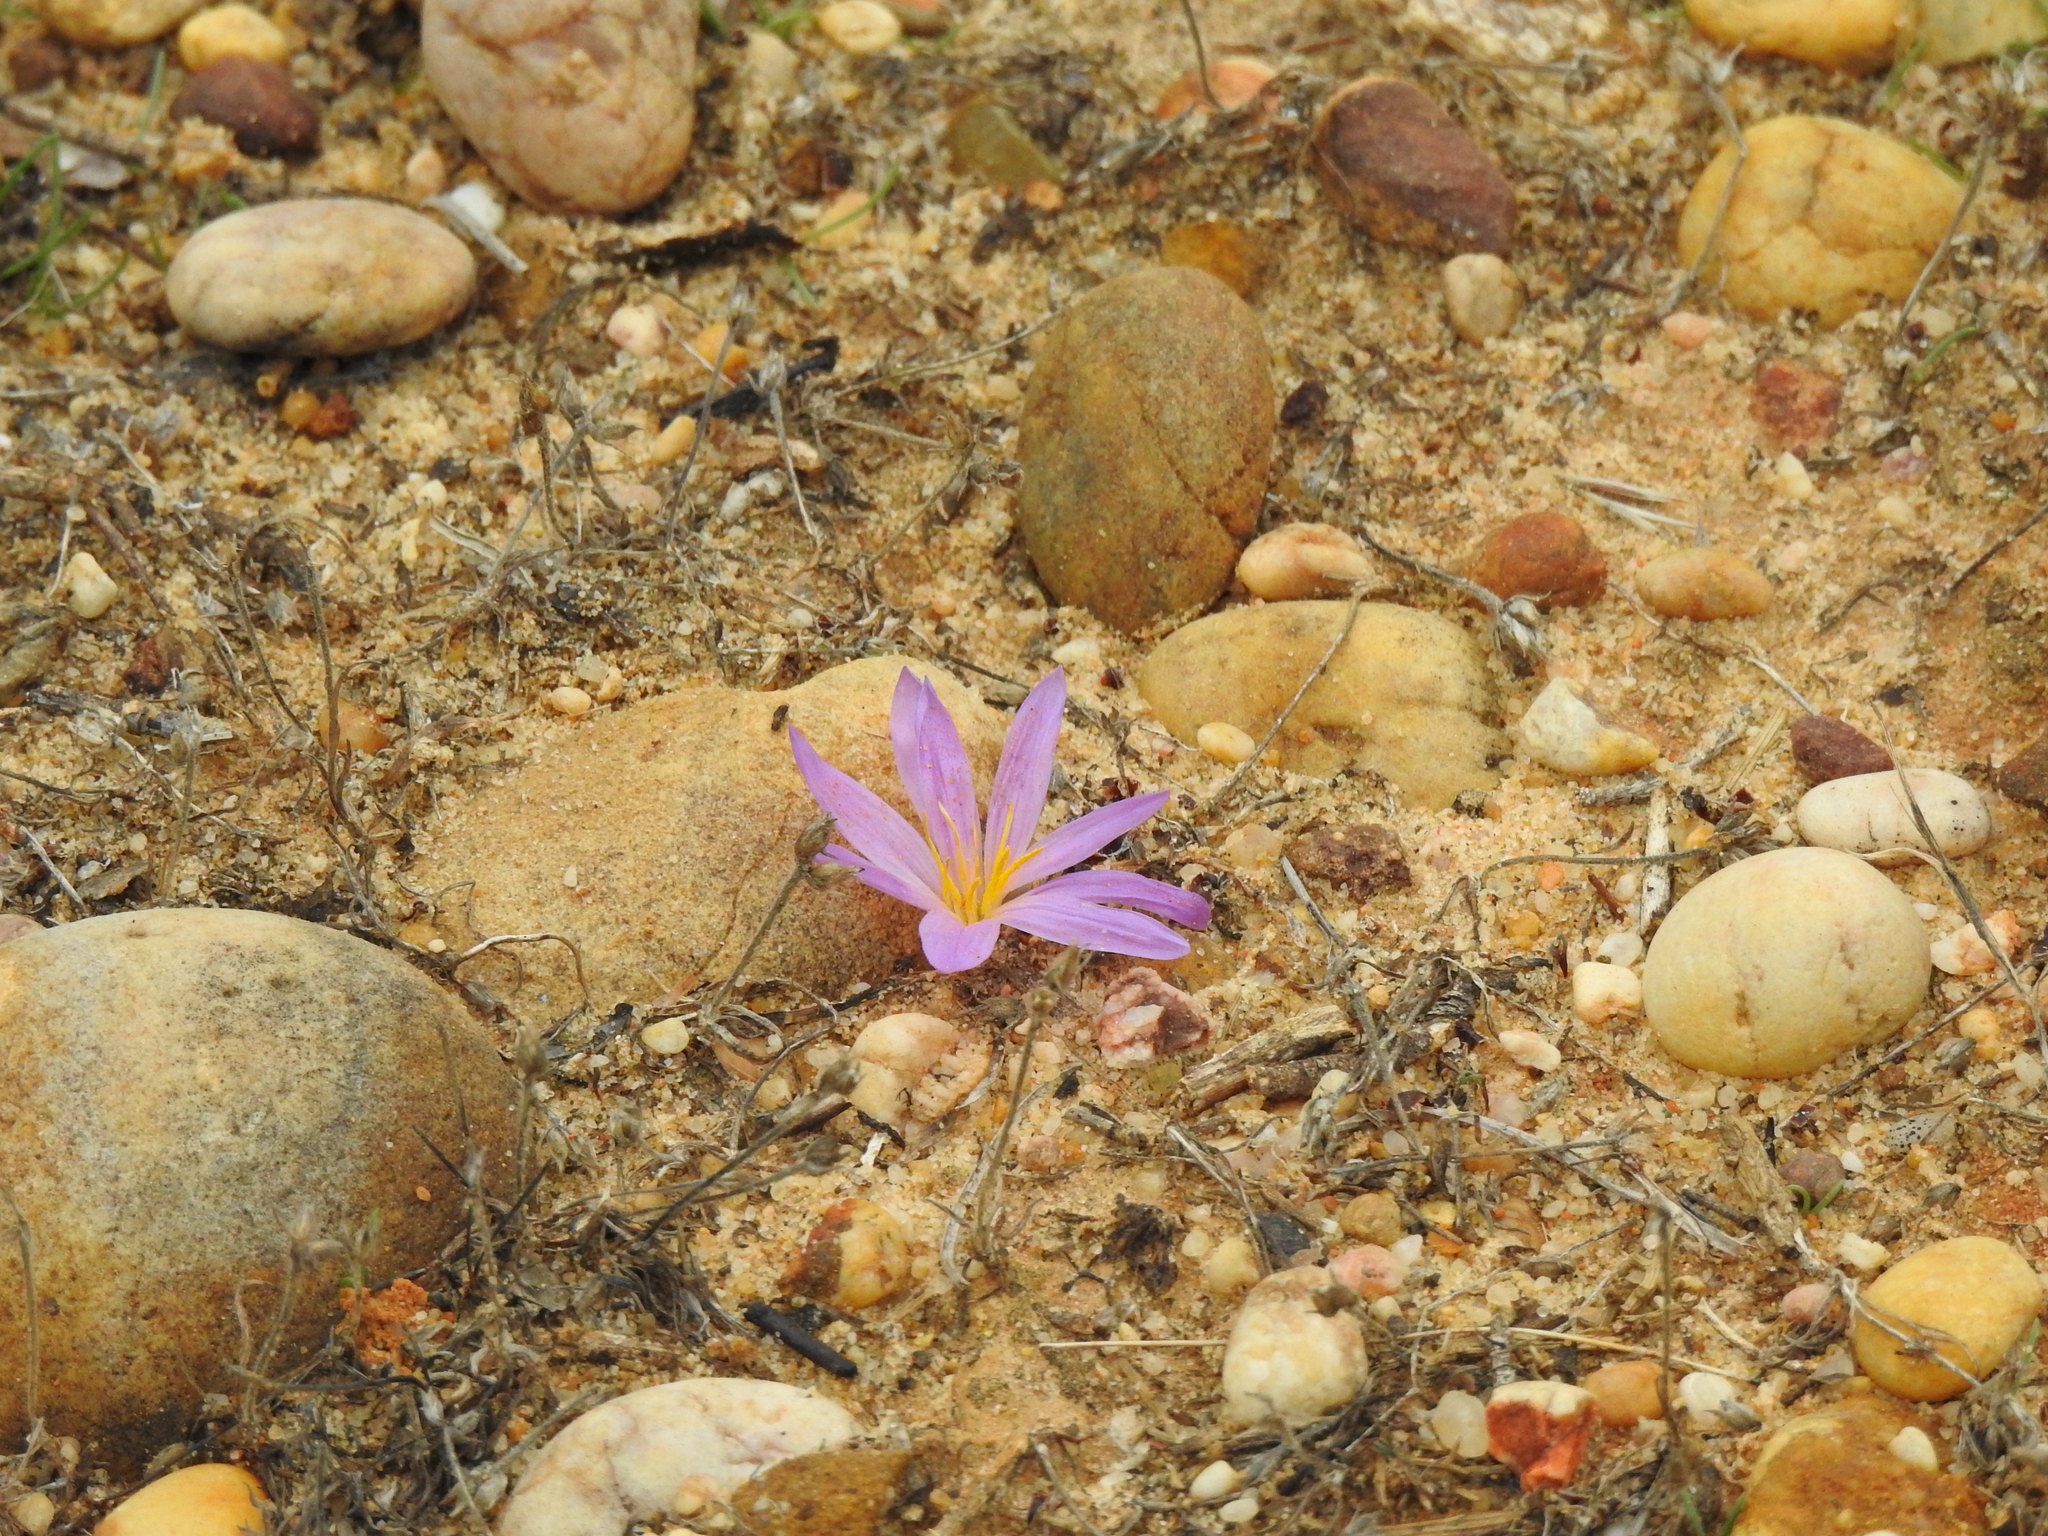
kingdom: Plantae
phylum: Tracheophyta
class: Liliopsida
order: Liliales
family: Colchicaceae
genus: Colchicum
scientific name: Colchicum filifolium
